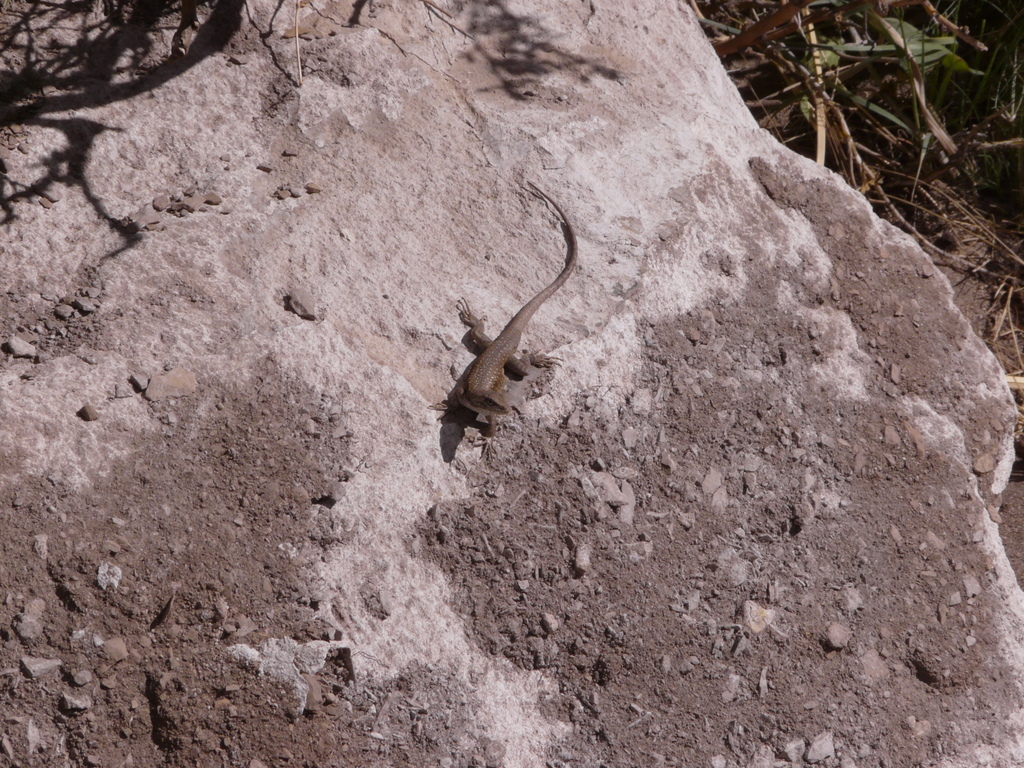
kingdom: Animalia
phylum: Chordata
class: Squamata
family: Liolaemidae
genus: Liolaemus
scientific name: Liolaemus smaug
